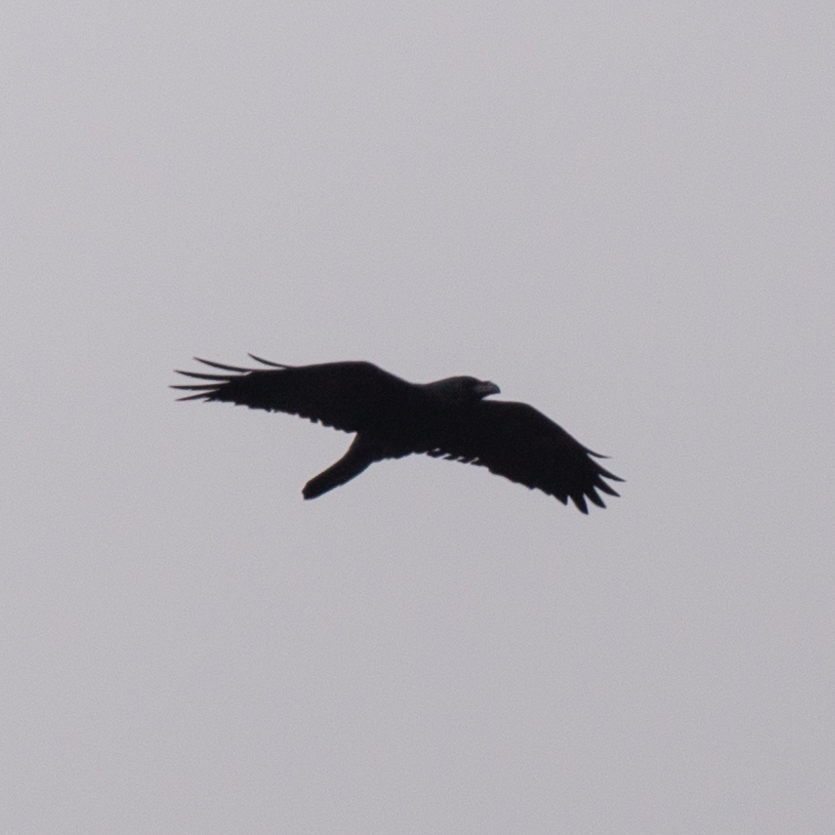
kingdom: Animalia
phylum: Chordata
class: Aves
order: Passeriformes
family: Corvidae
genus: Corvus
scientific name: Corvus corax
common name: Common raven
